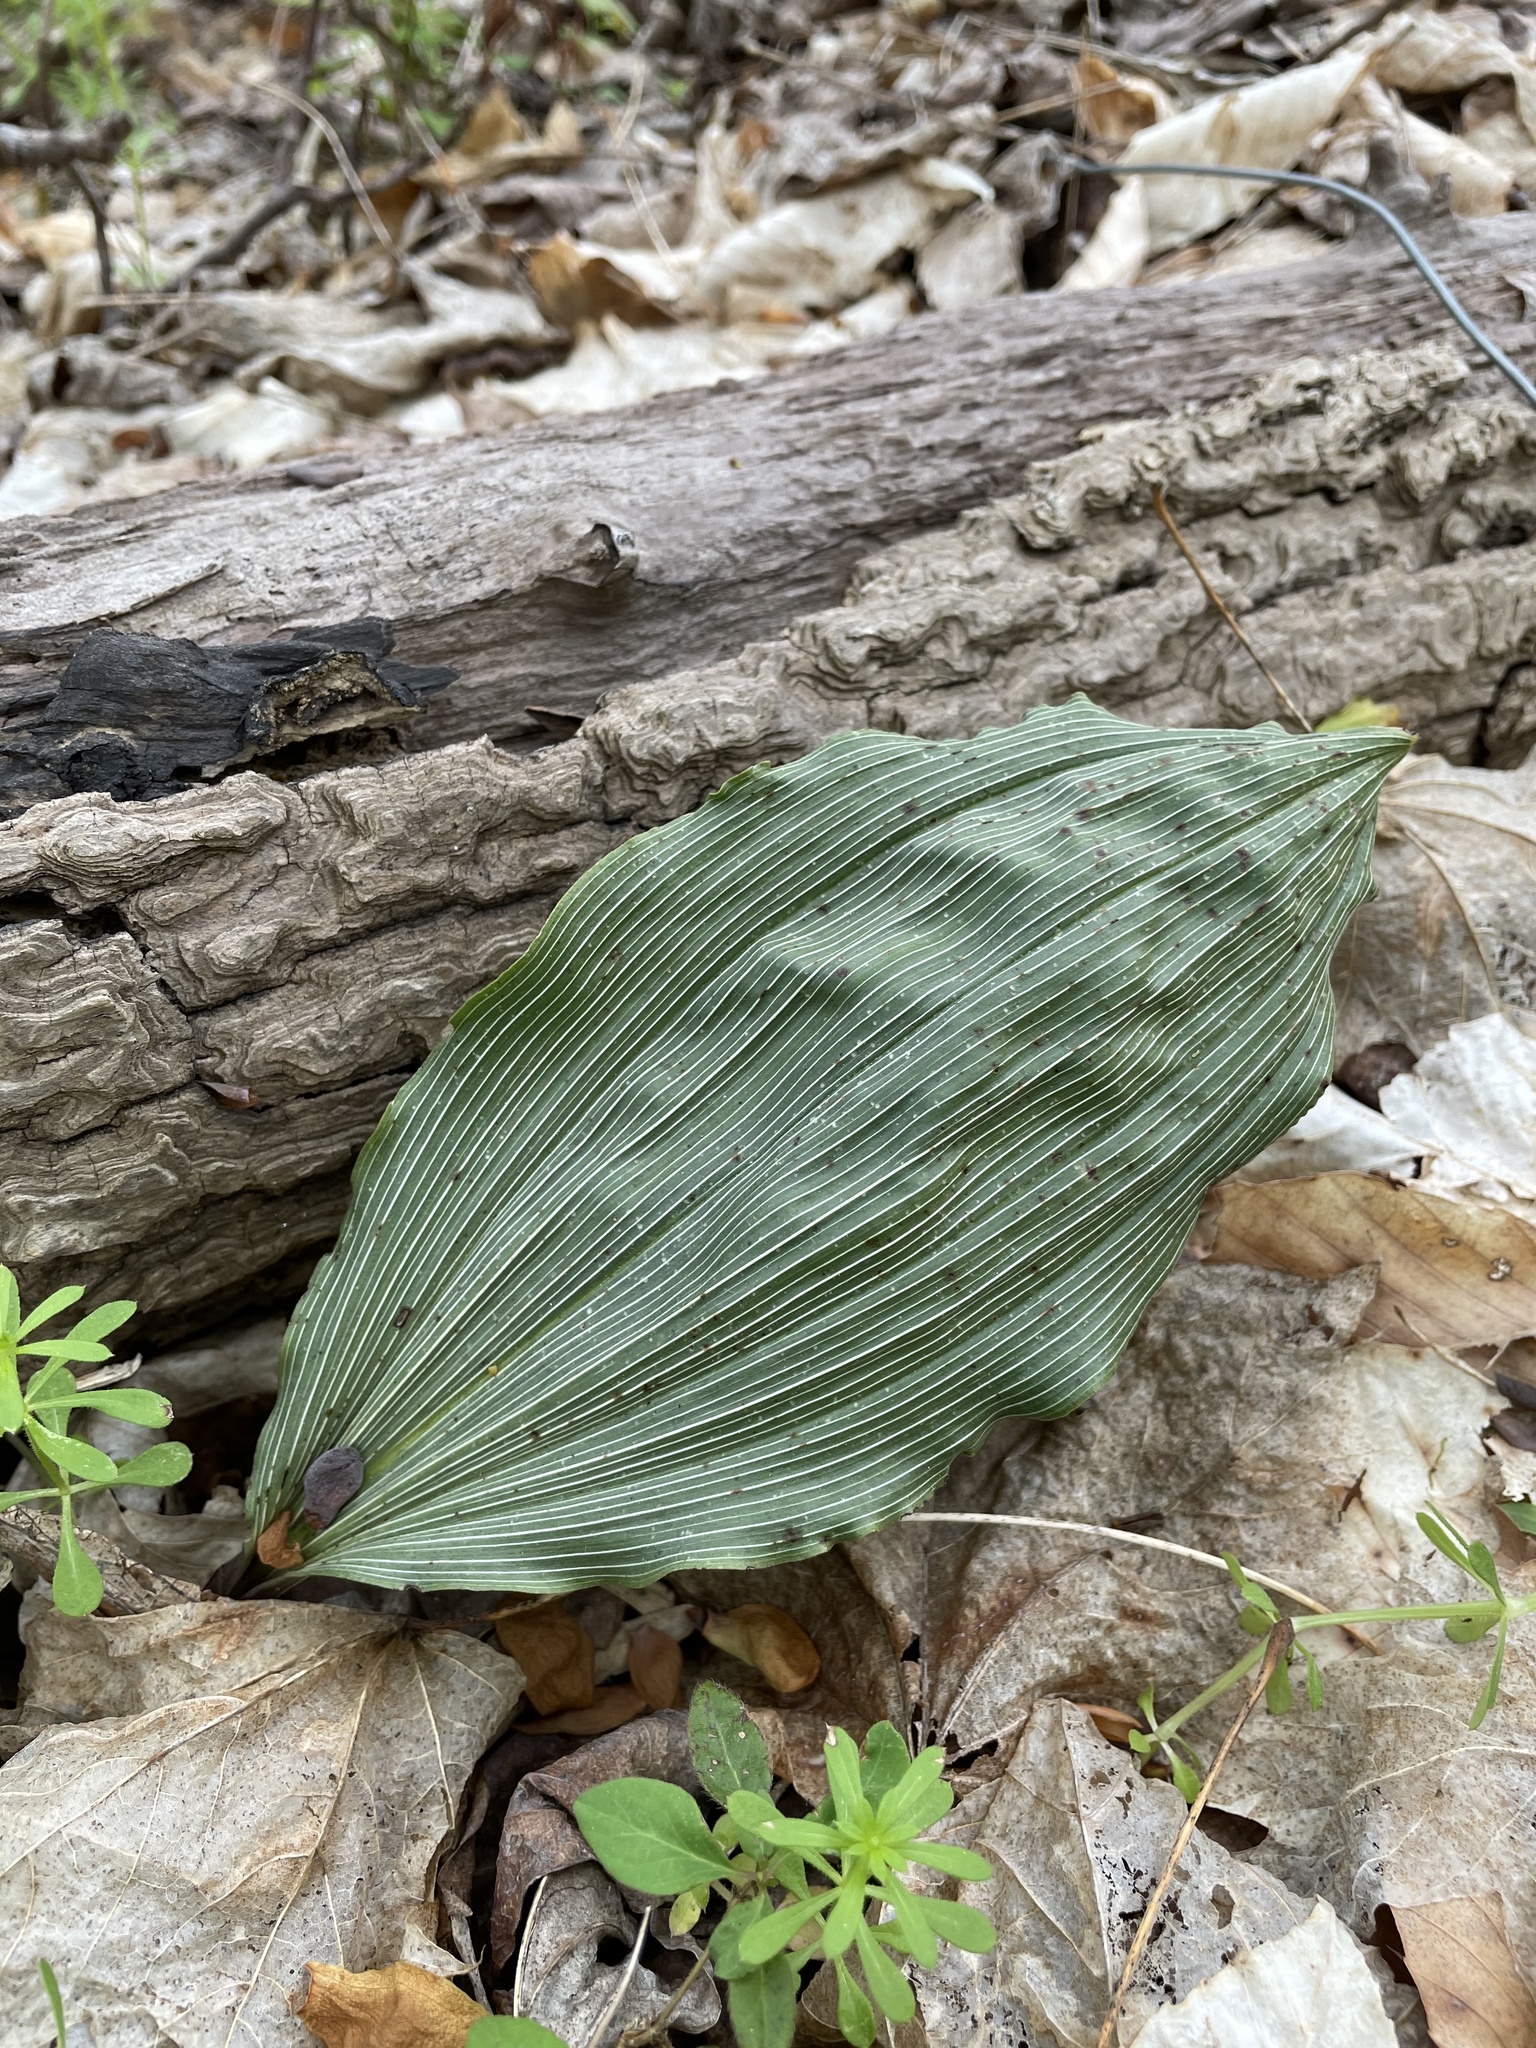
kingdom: Plantae
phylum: Tracheophyta
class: Liliopsida
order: Asparagales
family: Orchidaceae
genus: Aplectrum
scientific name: Aplectrum hyemale
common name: Adam-and-eve
